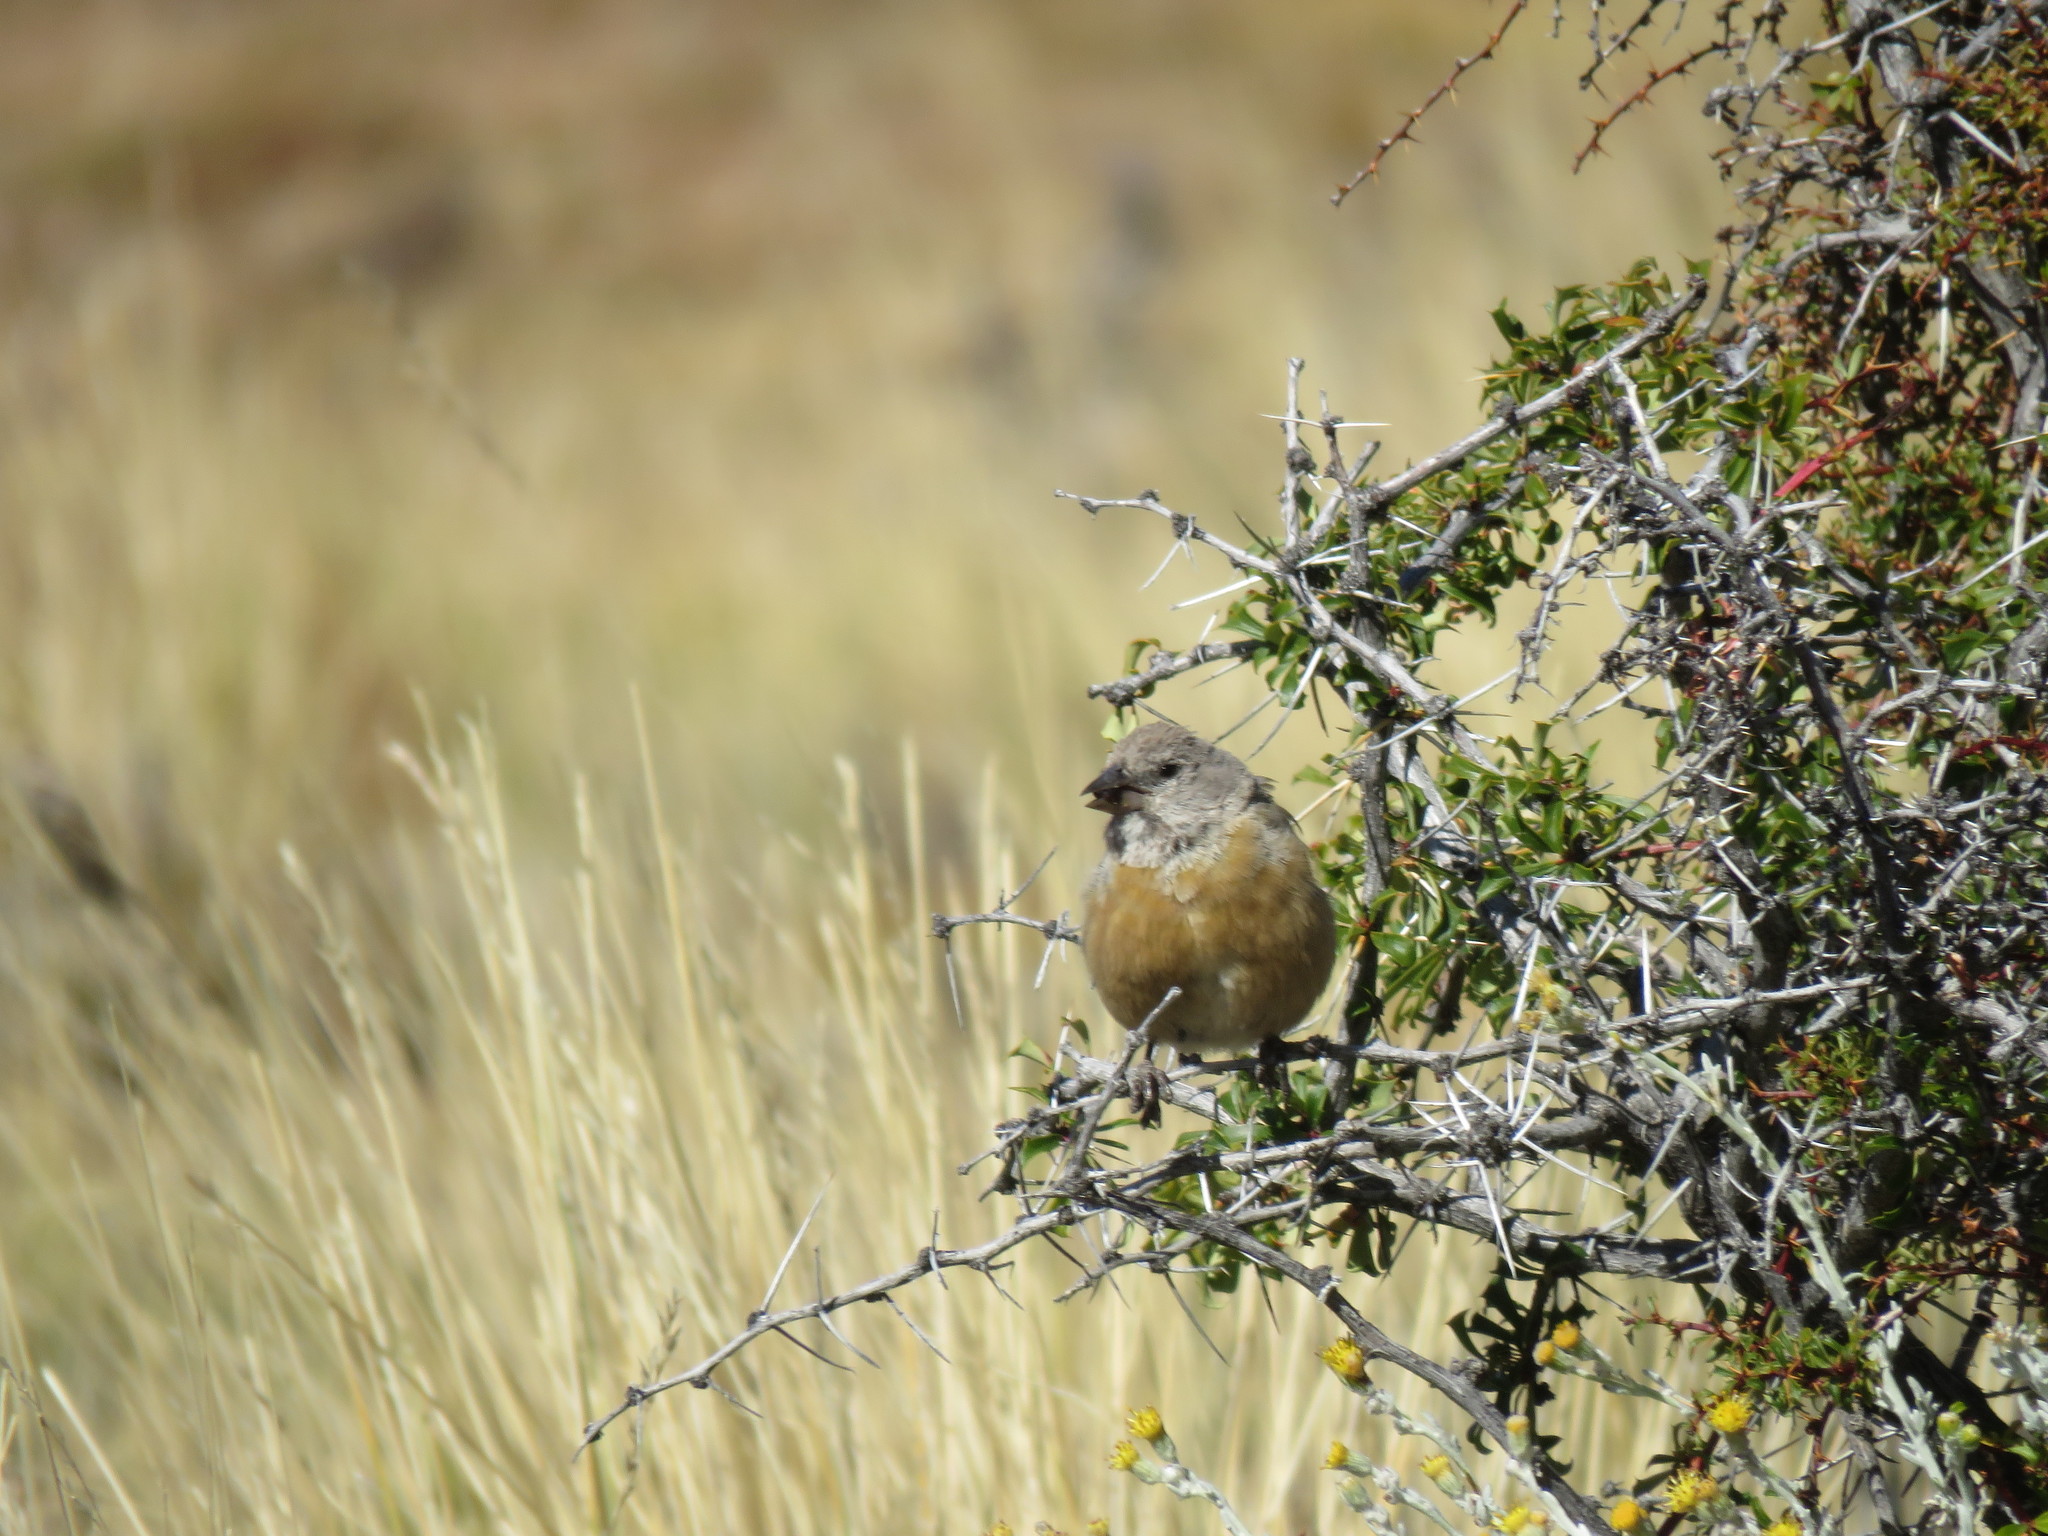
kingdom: Animalia
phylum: Chordata
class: Aves
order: Passeriformes
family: Thraupidae
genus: Phrygilus
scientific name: Phrygilus gayi
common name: Grey-hooded sierra finch
